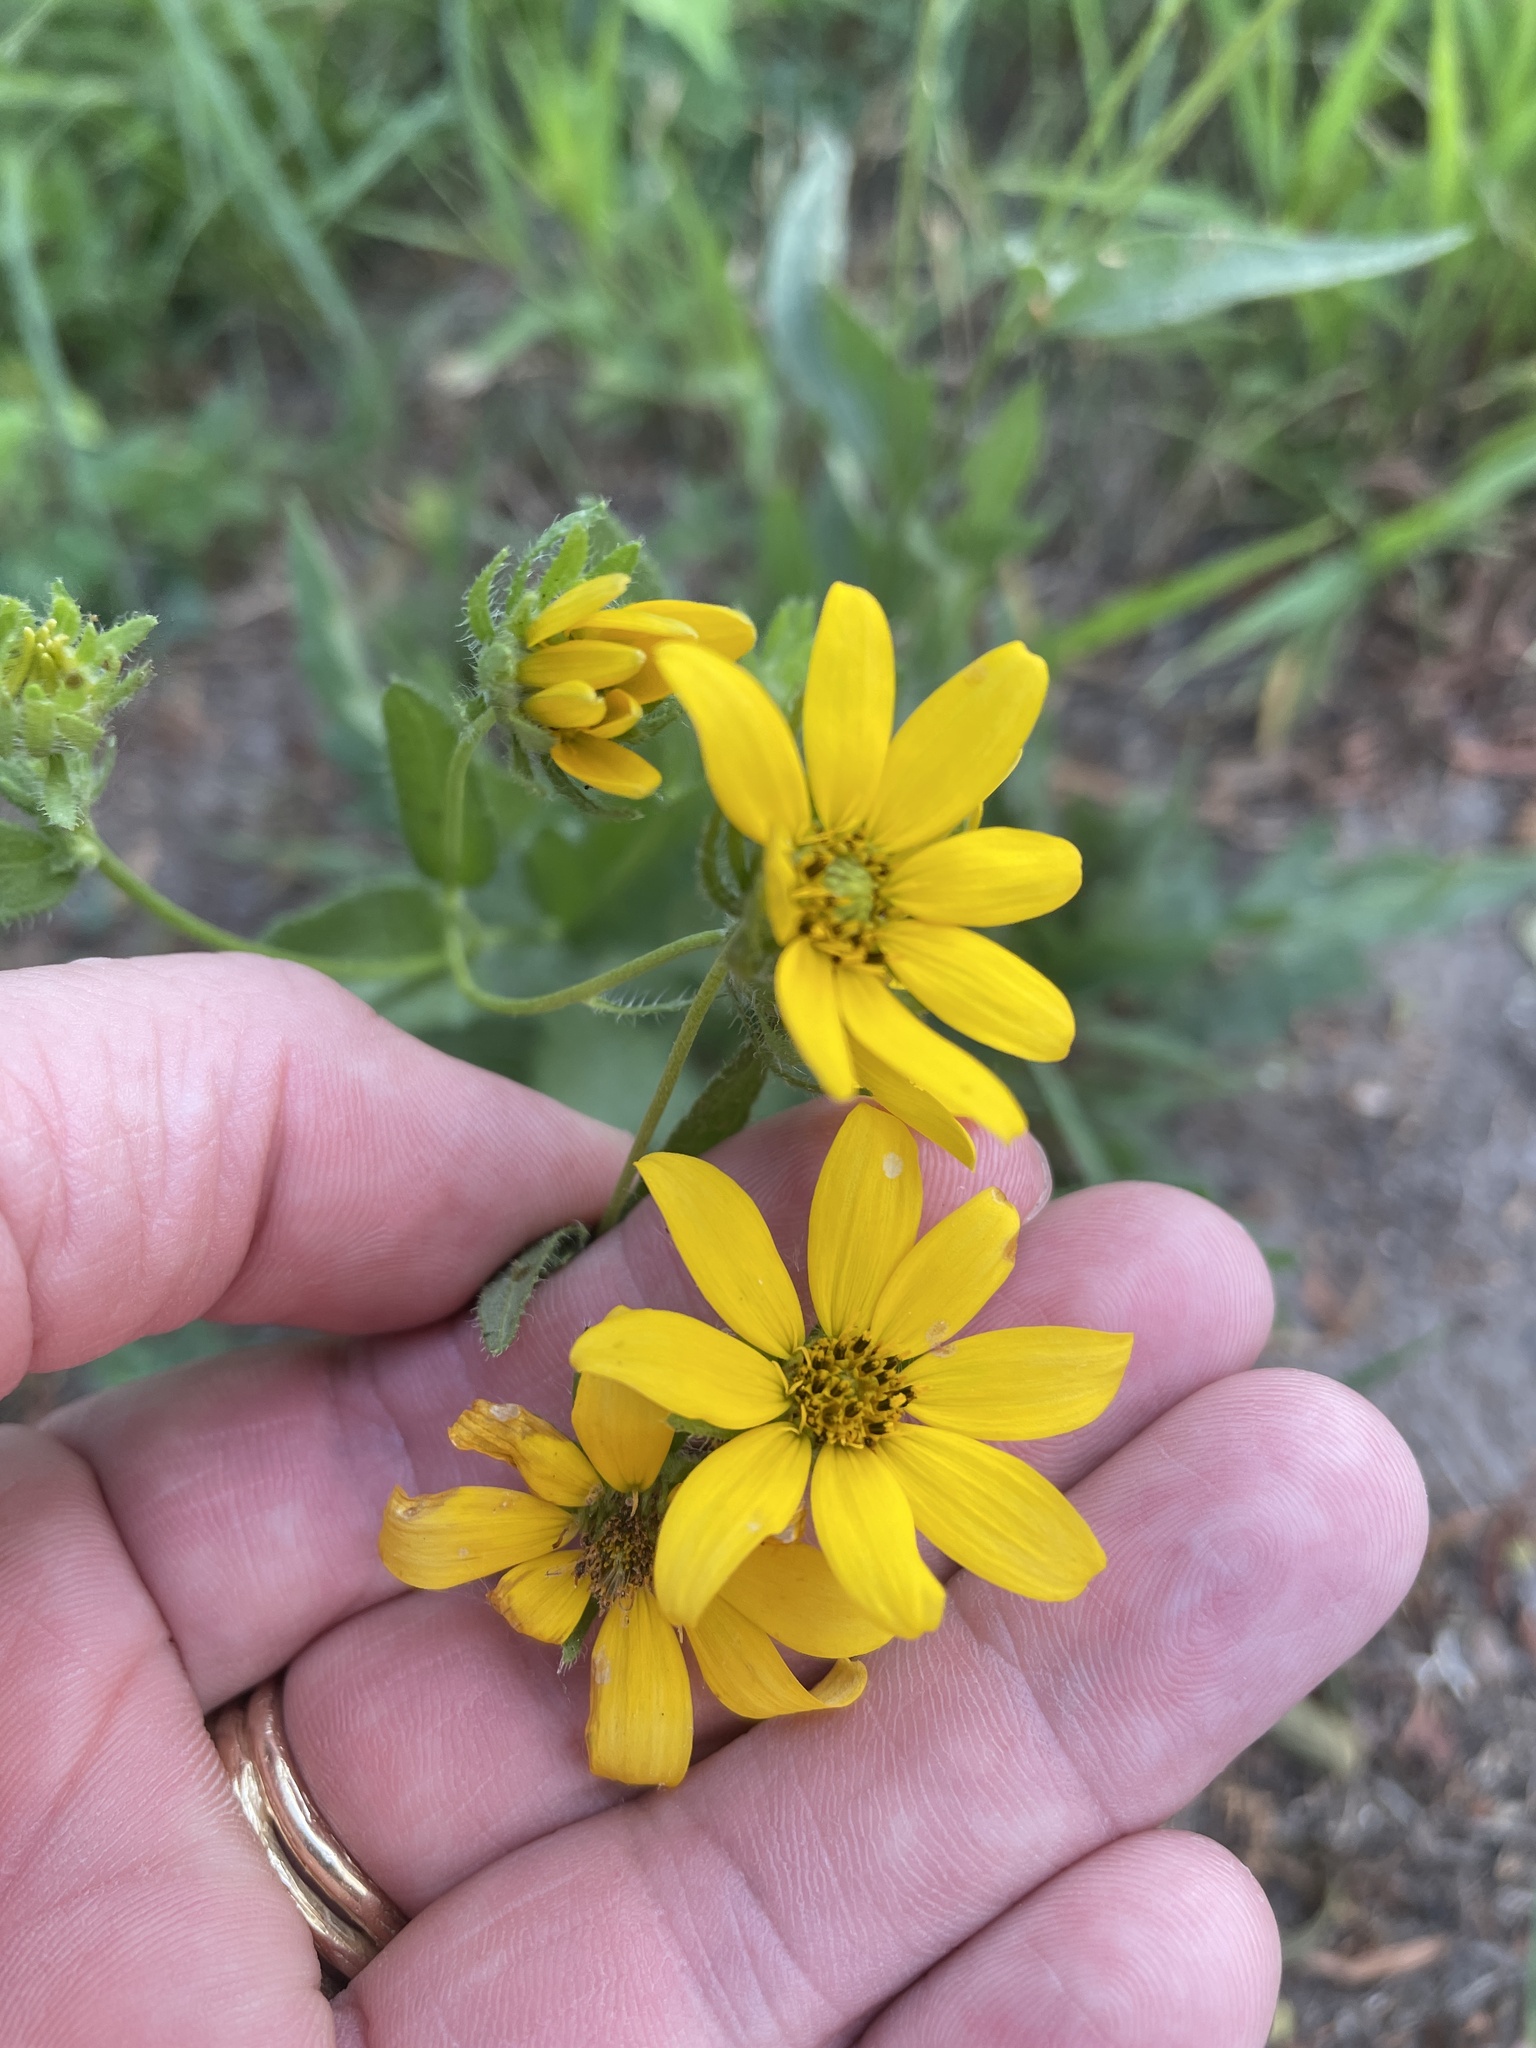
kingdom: Plantae
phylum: Tracheophyta
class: Magnoliopsida
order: Asterales
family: Asteraceae
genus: Engelmannia
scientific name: Engelmannia peristenia
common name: Engelmann's daisy
